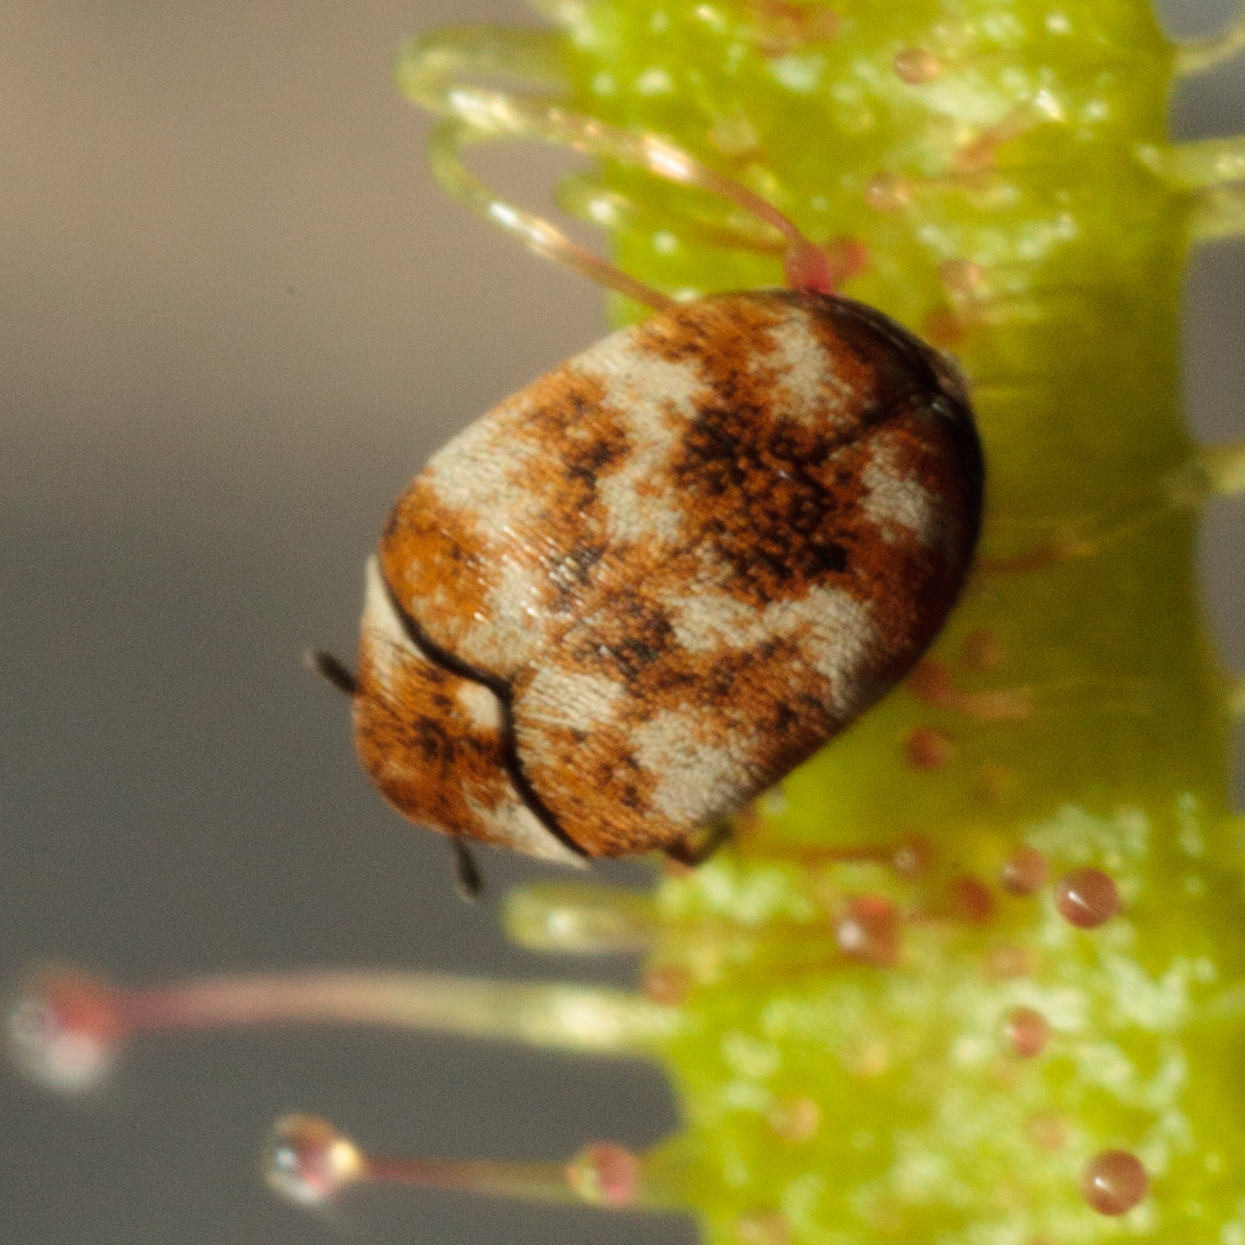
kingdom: Animalia
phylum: Arthropoda
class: Insecta
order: Coleoptera
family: Dermestidae
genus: Anthrenus
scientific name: Anthrenus verbasci
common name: Varied carpet beetle
